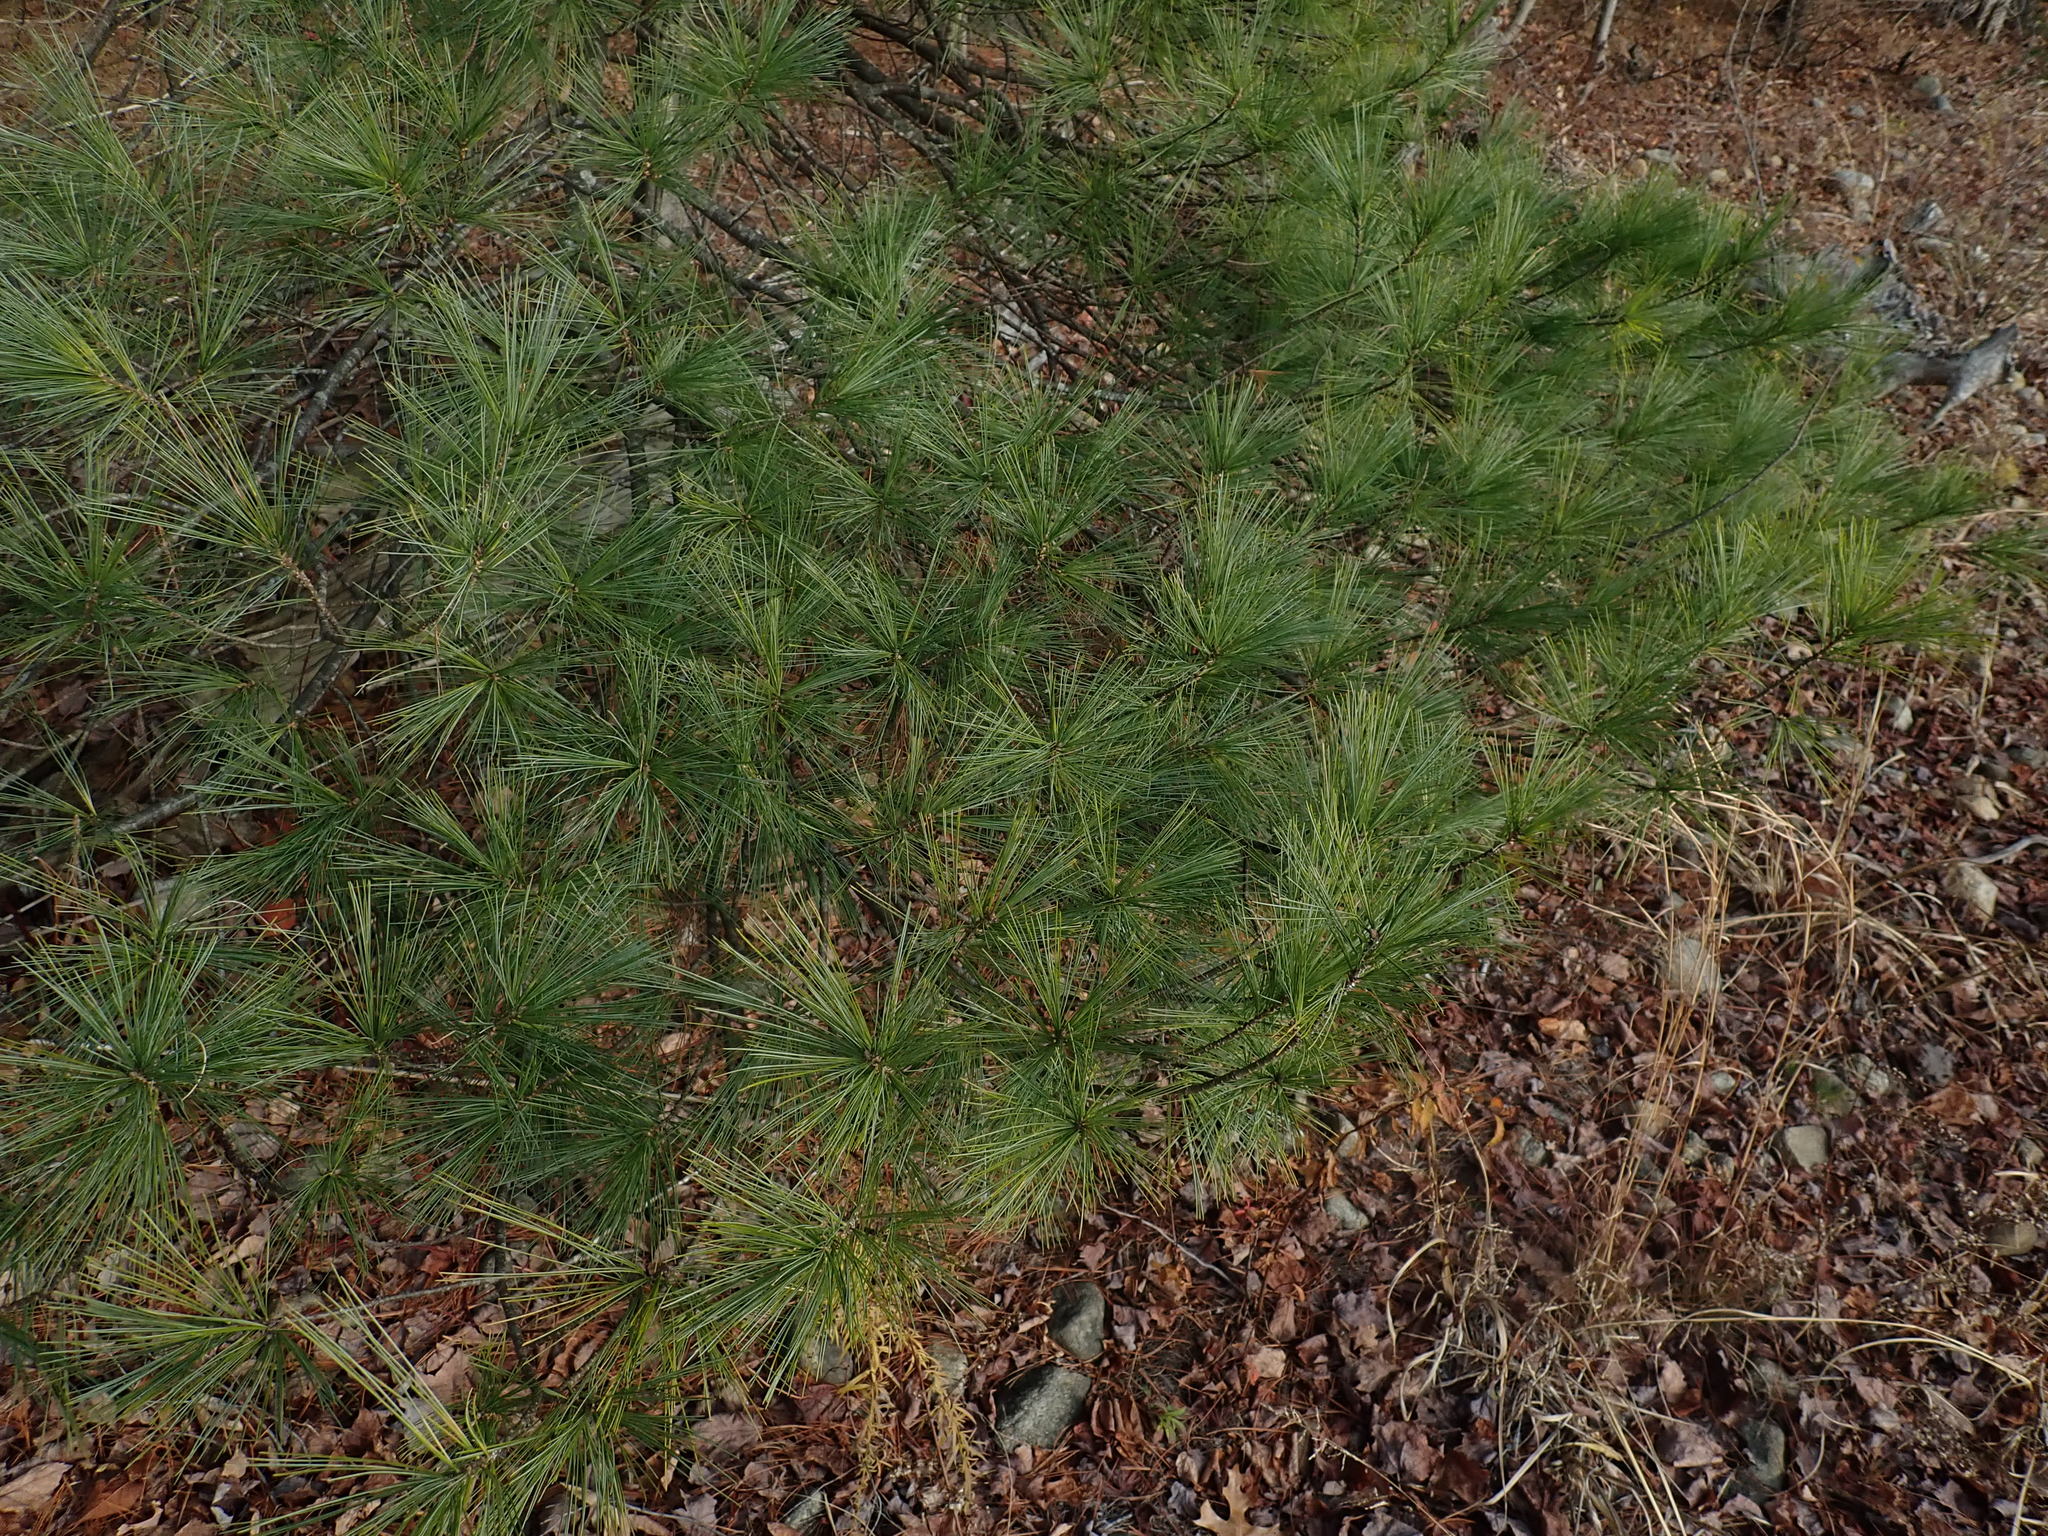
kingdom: Plantae
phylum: Tracheophyta
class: Pinopsida
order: Pinales
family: Pinaceae
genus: Pinus
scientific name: Pinus strobus
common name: Weymouth pine
